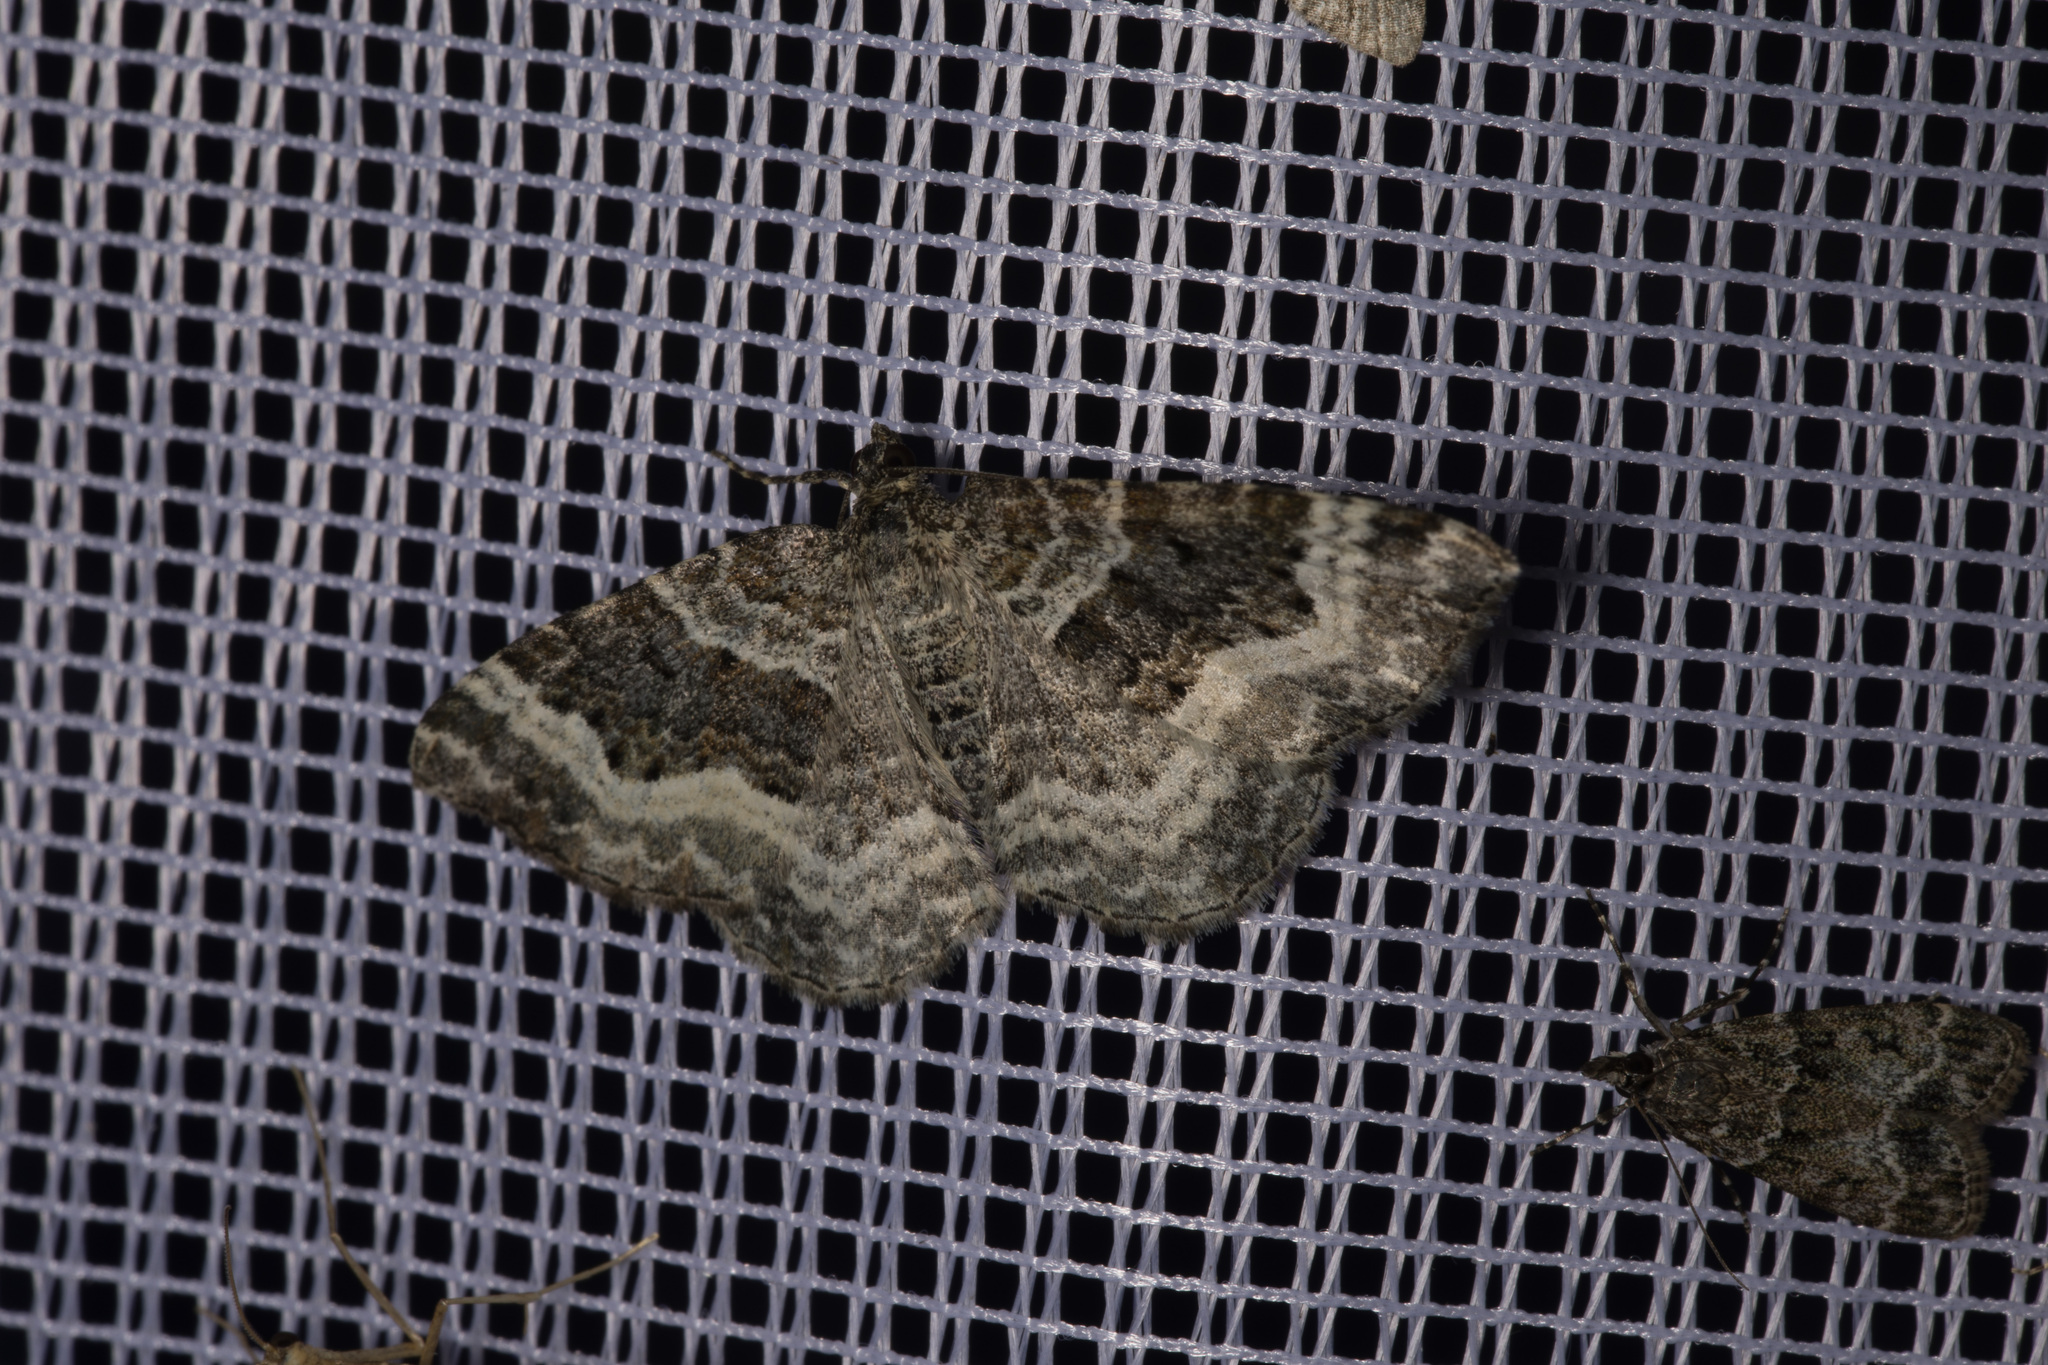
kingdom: Animalia
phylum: Arthropoda
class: Insecta
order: Lepidoptera
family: Geometridae
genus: Epirrhoe
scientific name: Epirrhoe alternata
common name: Common carpet
